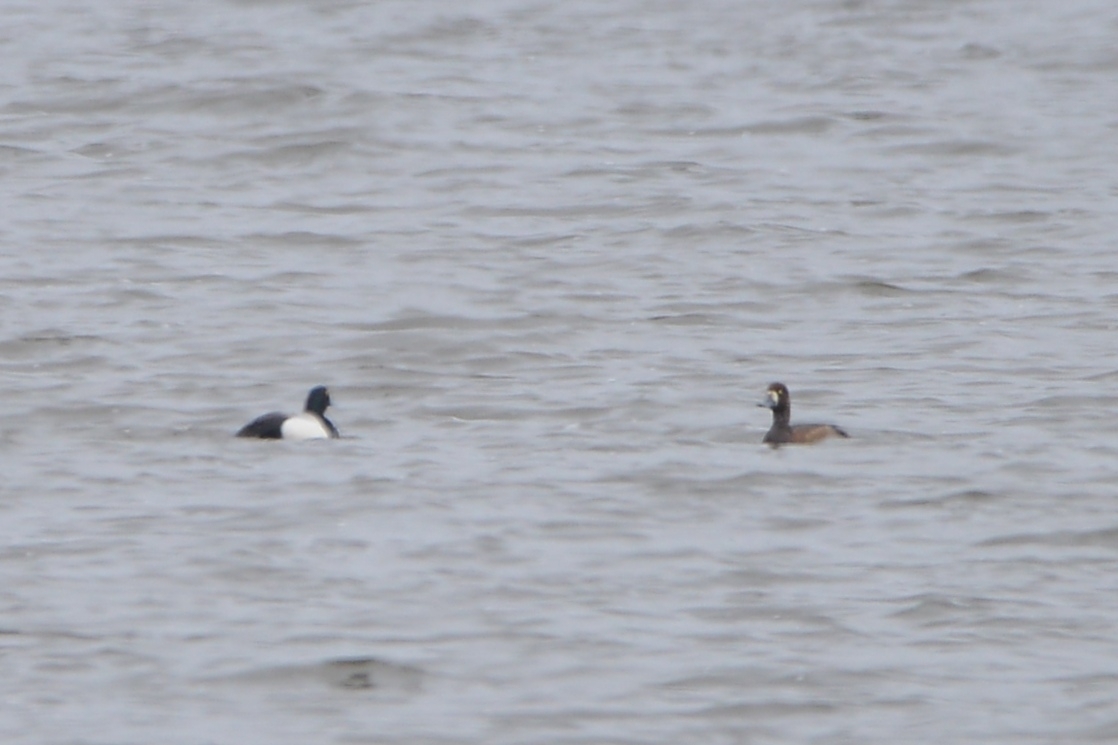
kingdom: Animalia
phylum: Chordata
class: Aves
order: Anseriformes
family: Anatidae
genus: Aythya
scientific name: Aythya marila
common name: Greater scaup
